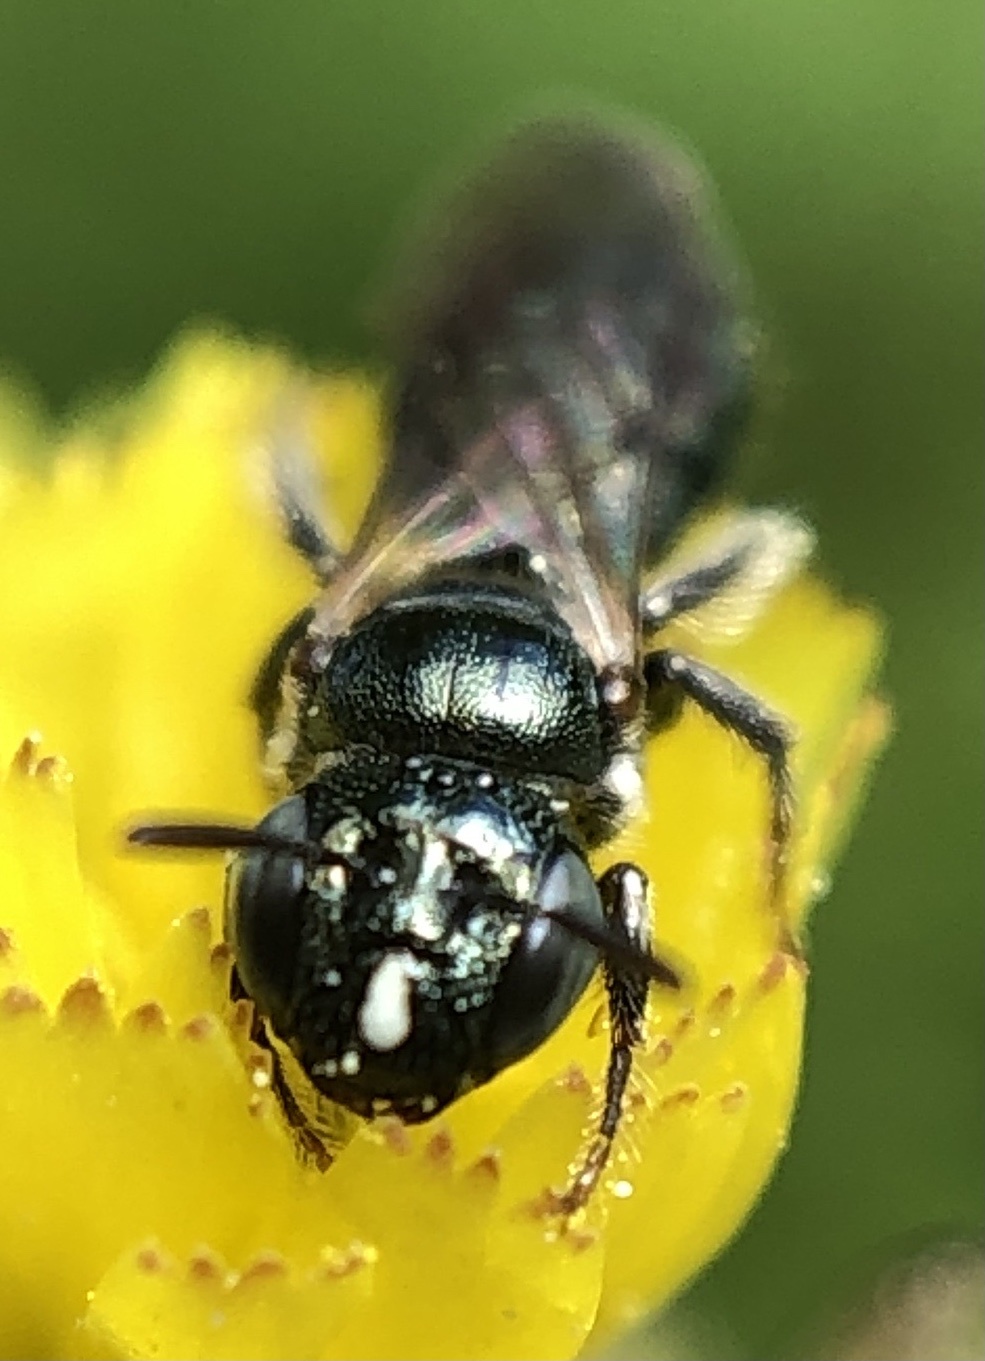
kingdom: Animalia
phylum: Arthropoda
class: Insecta
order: Hymenoptera
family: Apidae
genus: Ceratina
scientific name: Ceratina strenua
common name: Nimble carpenter bee
